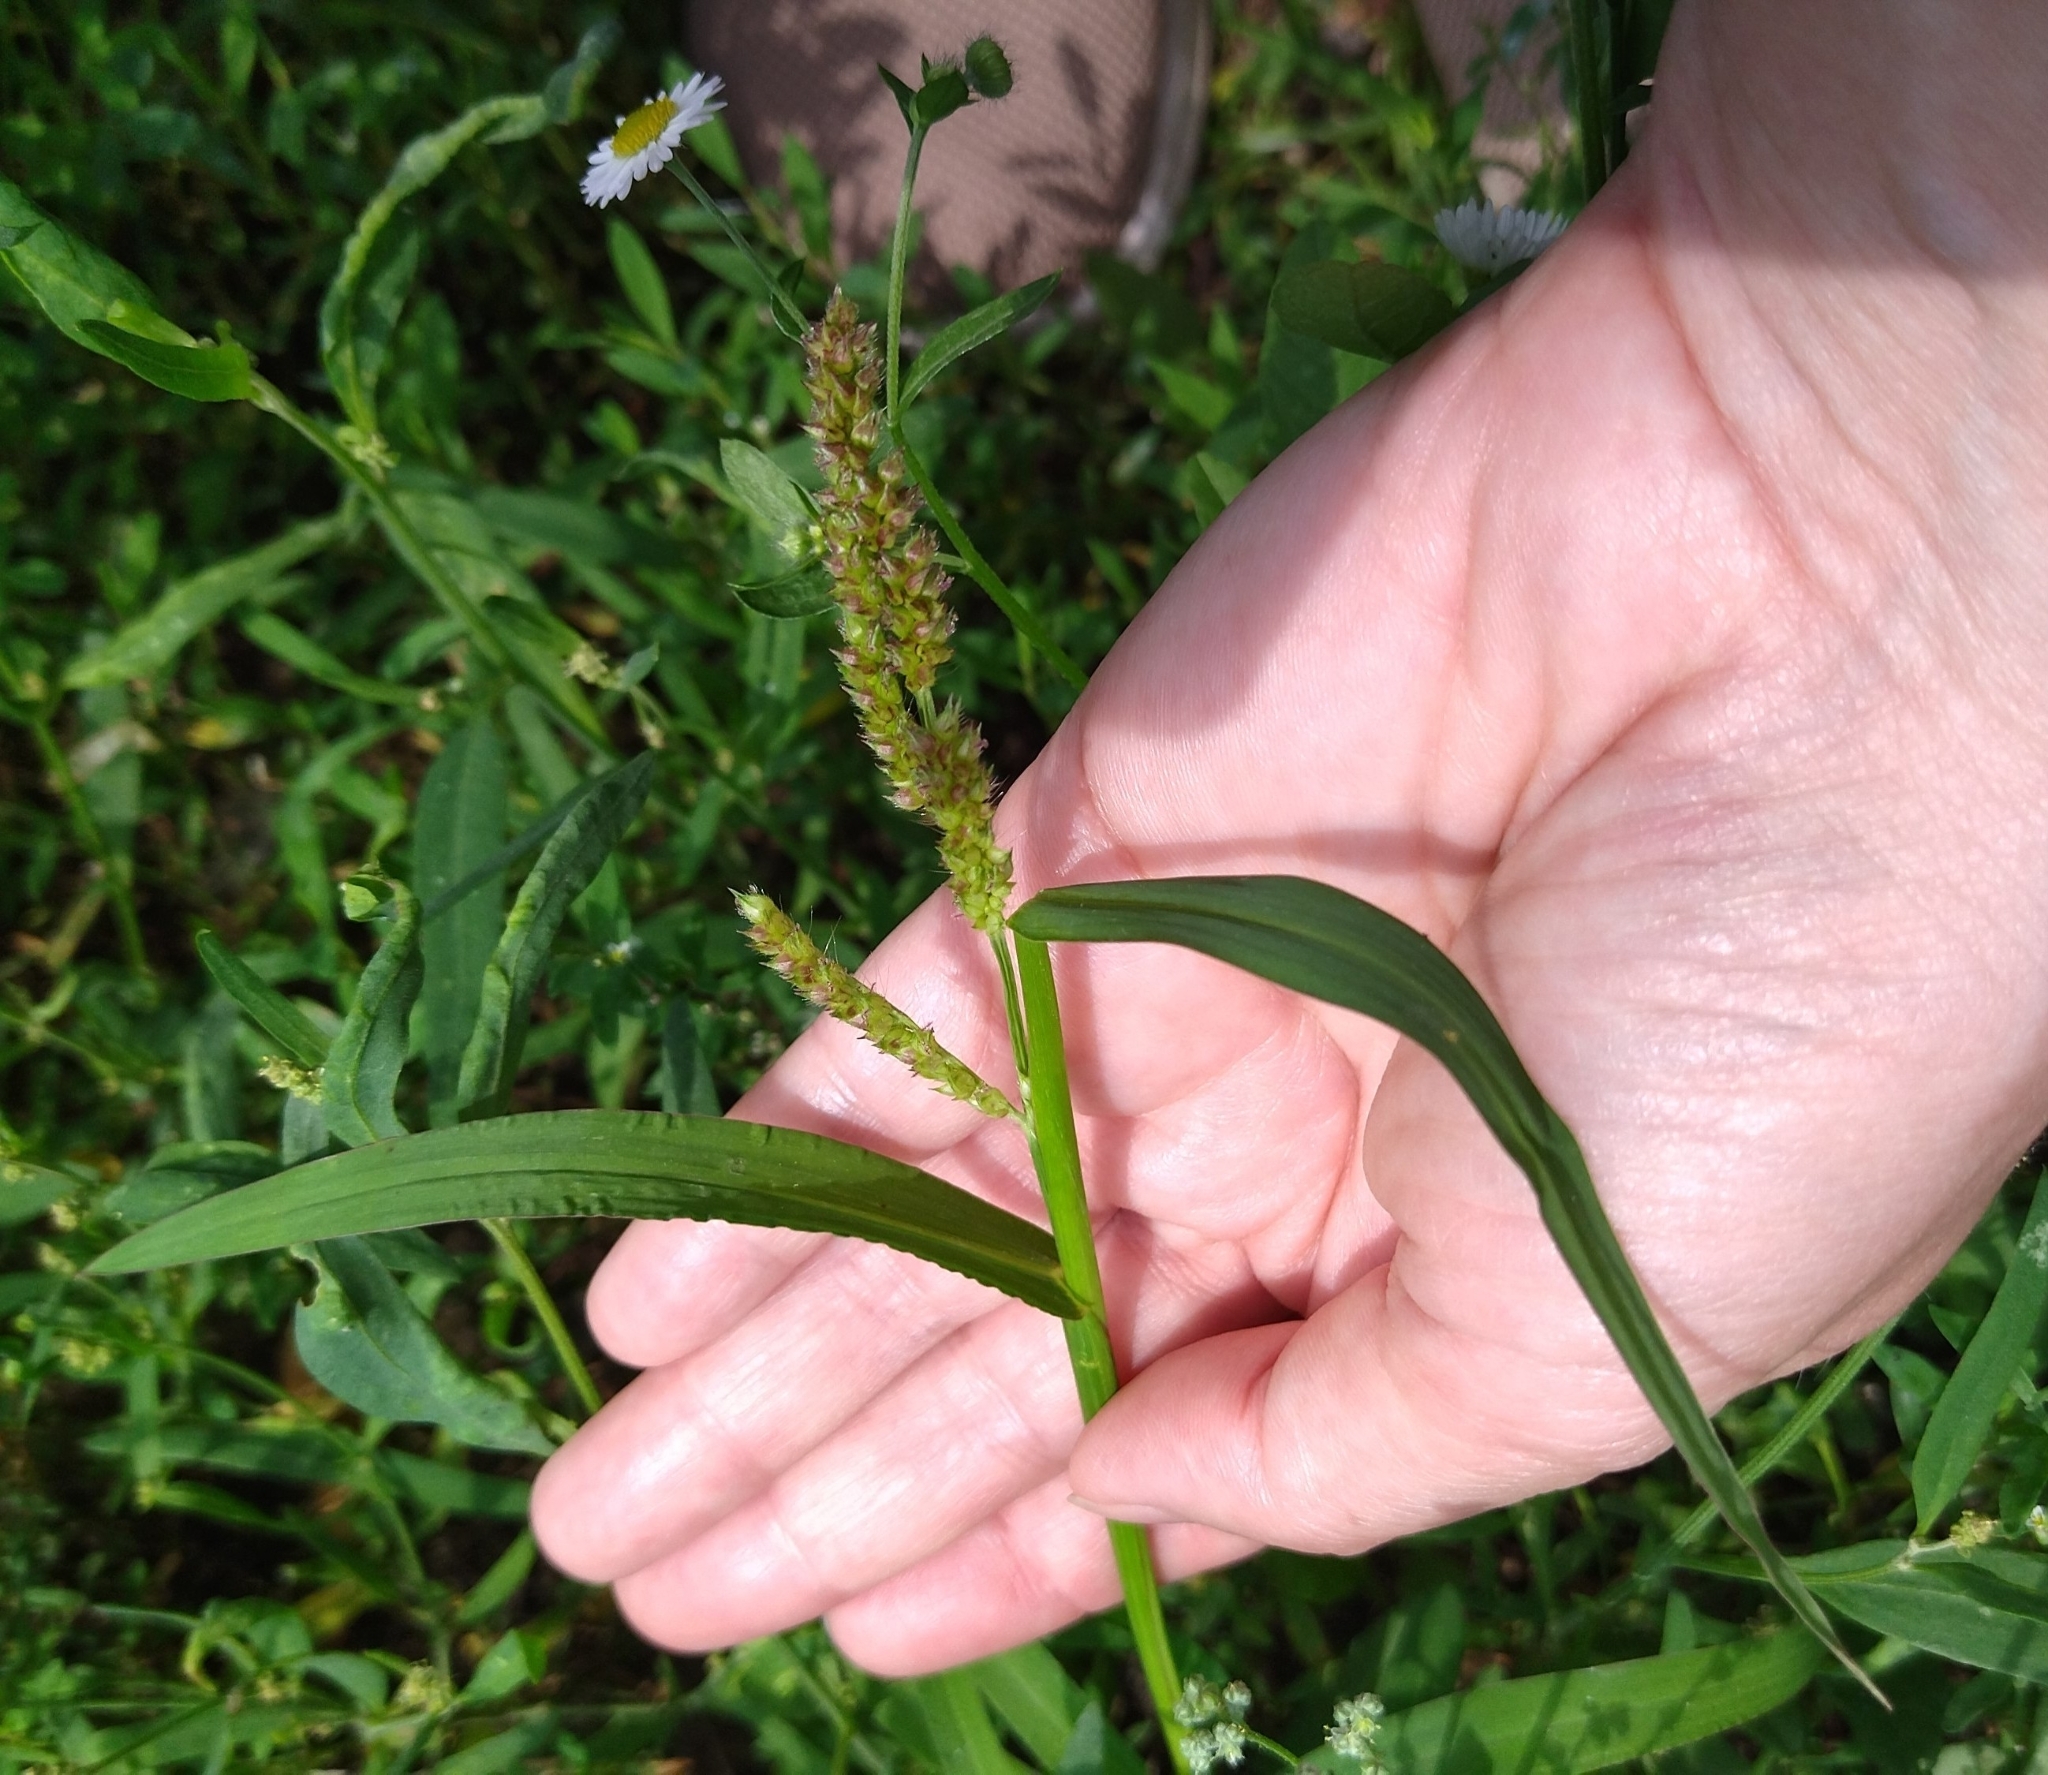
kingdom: Plantae
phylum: Tracheophyta
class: Liliopsida
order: Poales
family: Poaceae
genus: Echinochloa
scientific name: Echinochloa crus-galli
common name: Cockspur
